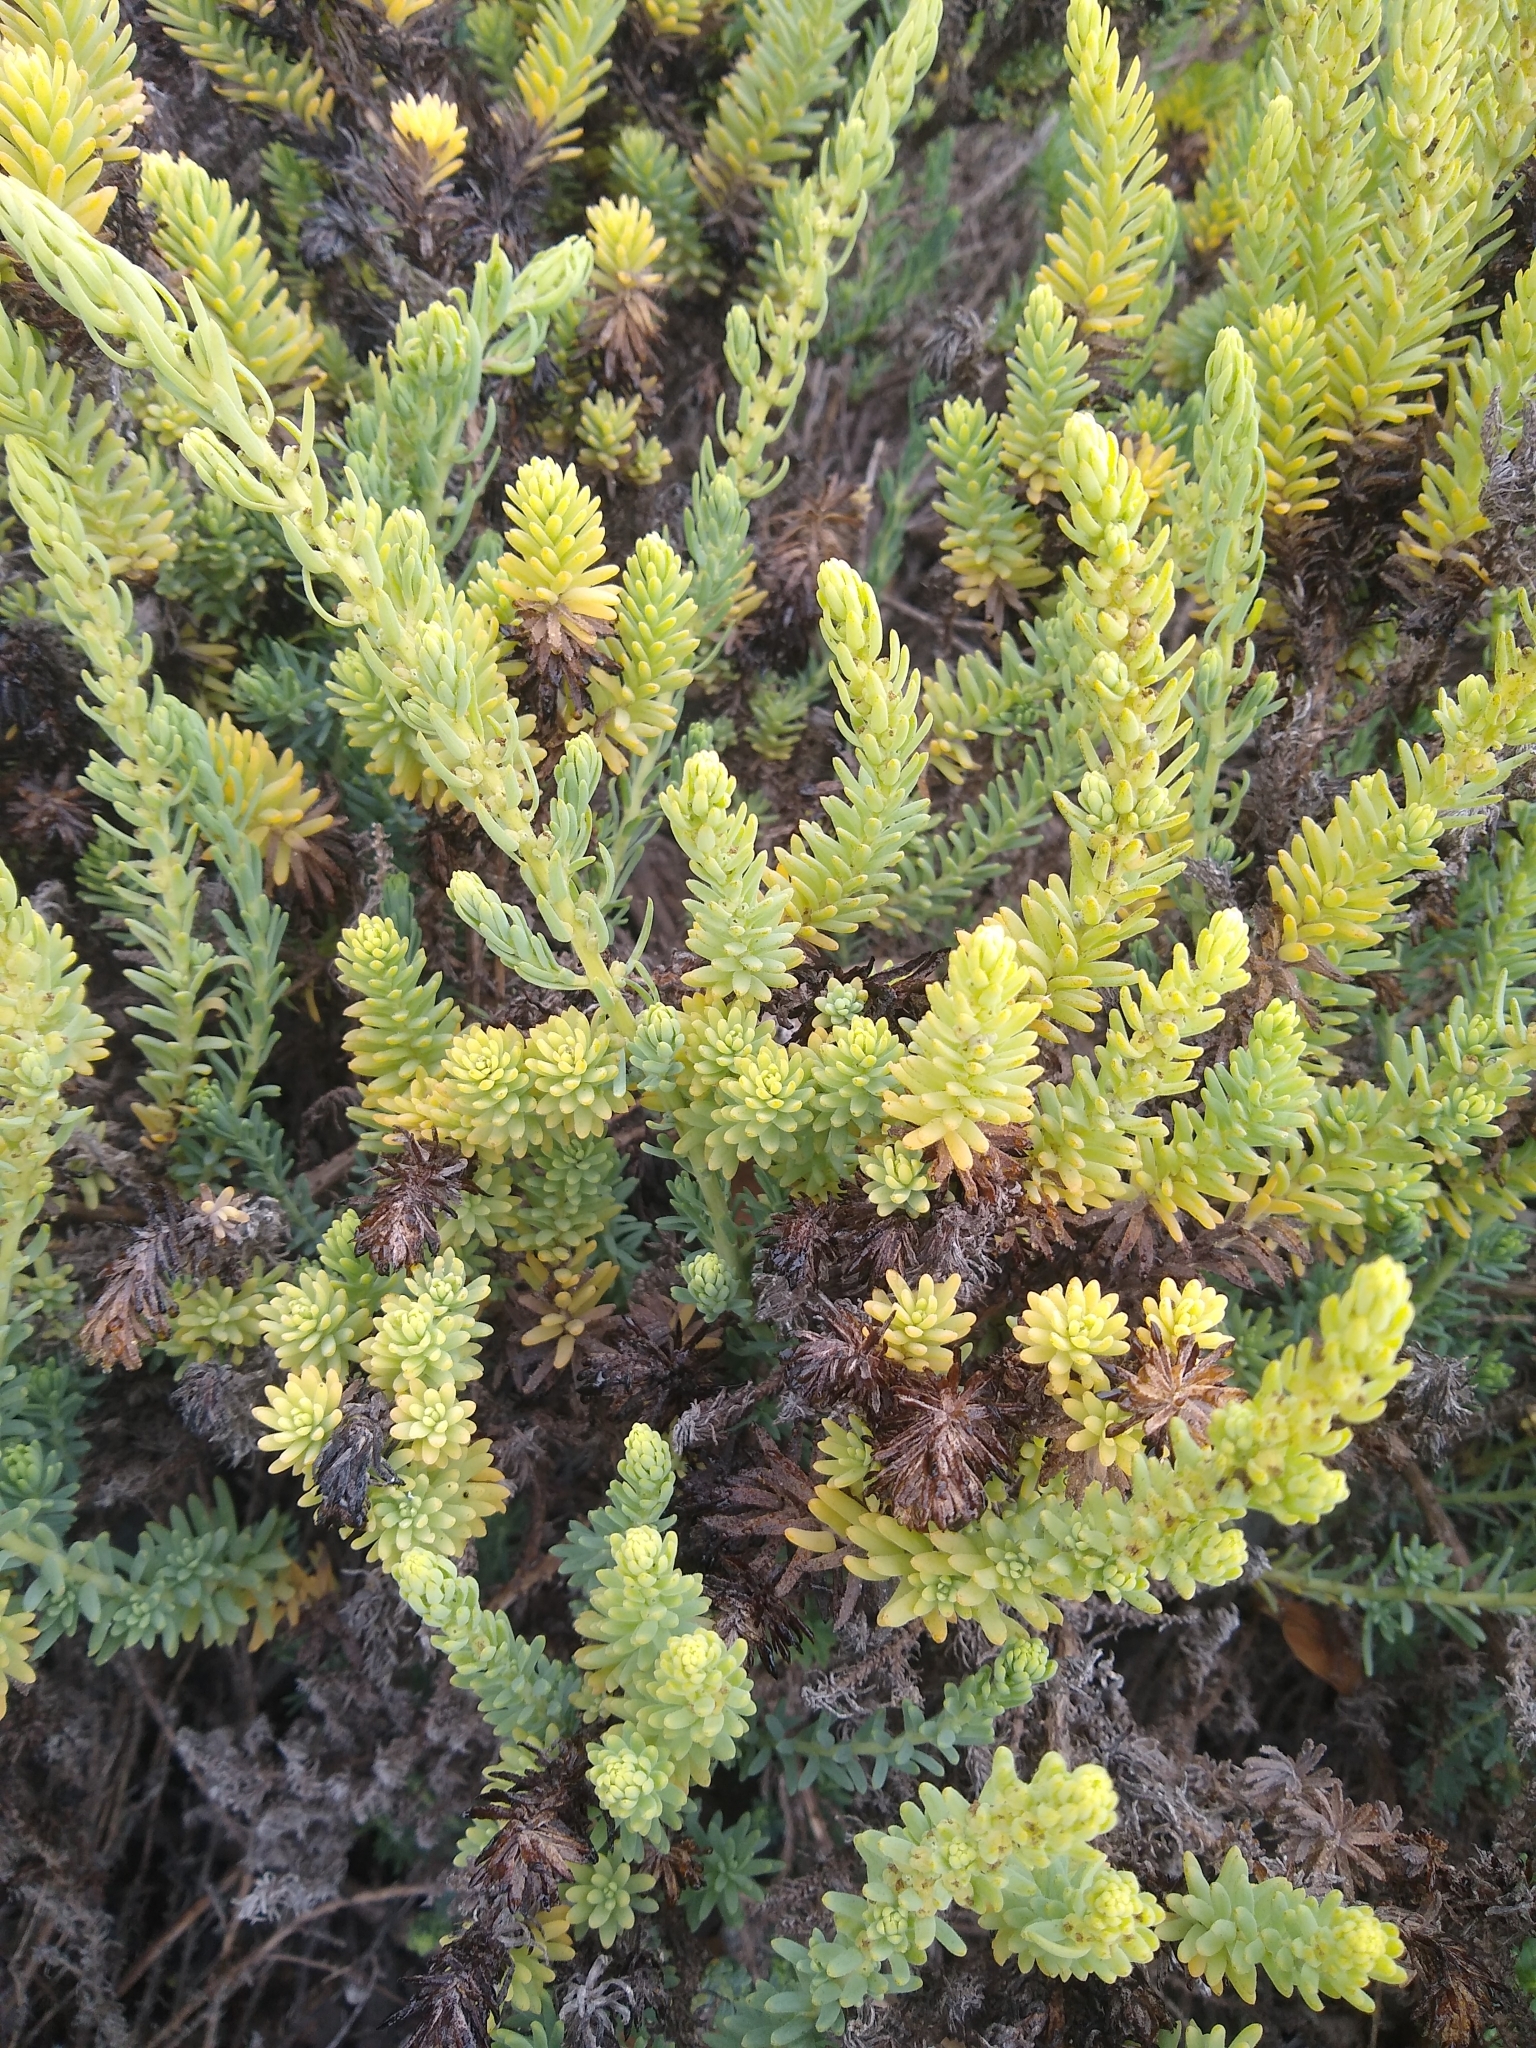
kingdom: Plantae
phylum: Tracheophyta
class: Magnoliopsida
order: Caryophyllales
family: Amaranthaceae
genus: Suaeda
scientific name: Suaeda californica
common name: California sea-blite
